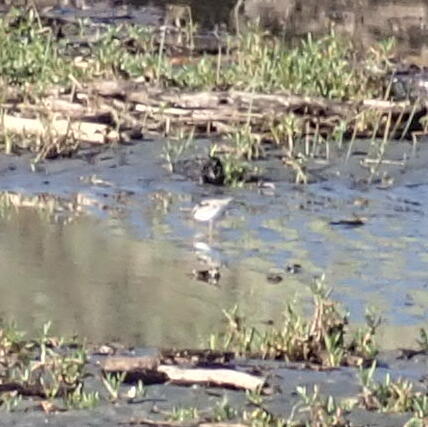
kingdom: Animalia
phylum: Chordata
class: Aves
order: Charadriiformes
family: Charadriidae
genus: Elseyornis
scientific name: Elseyornis melanops
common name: Black-fronted dotterel
